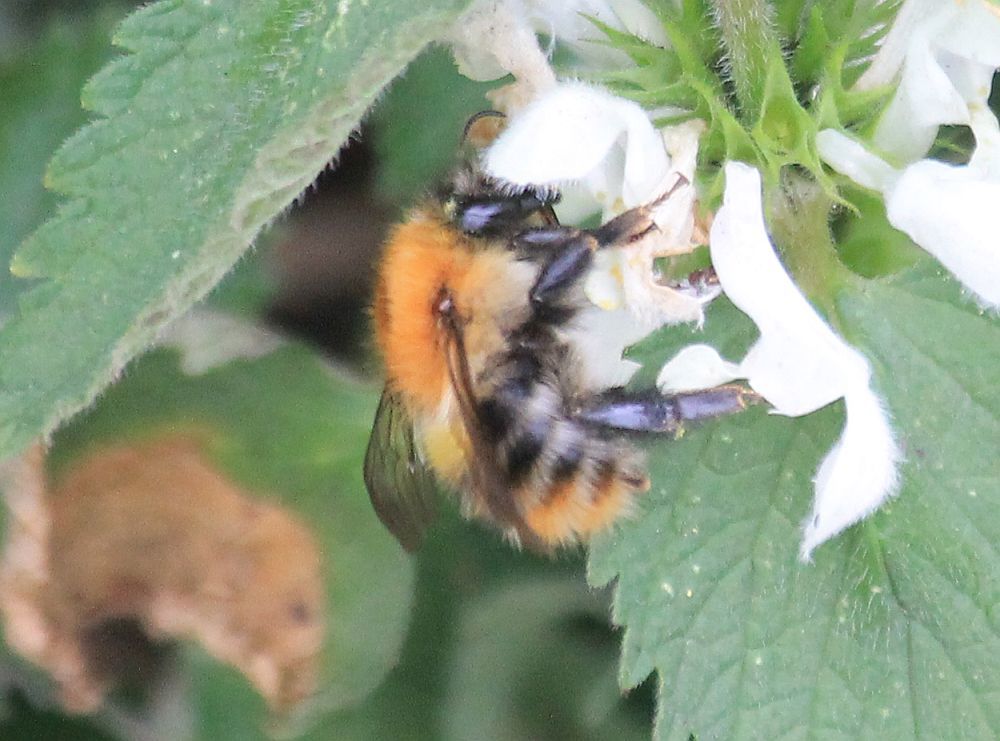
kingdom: Animalia
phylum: Arthropoda
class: Insecta
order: Hymenoptera
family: Apidae
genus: Bombus
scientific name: Bombus pascuorum
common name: Common carder bee
